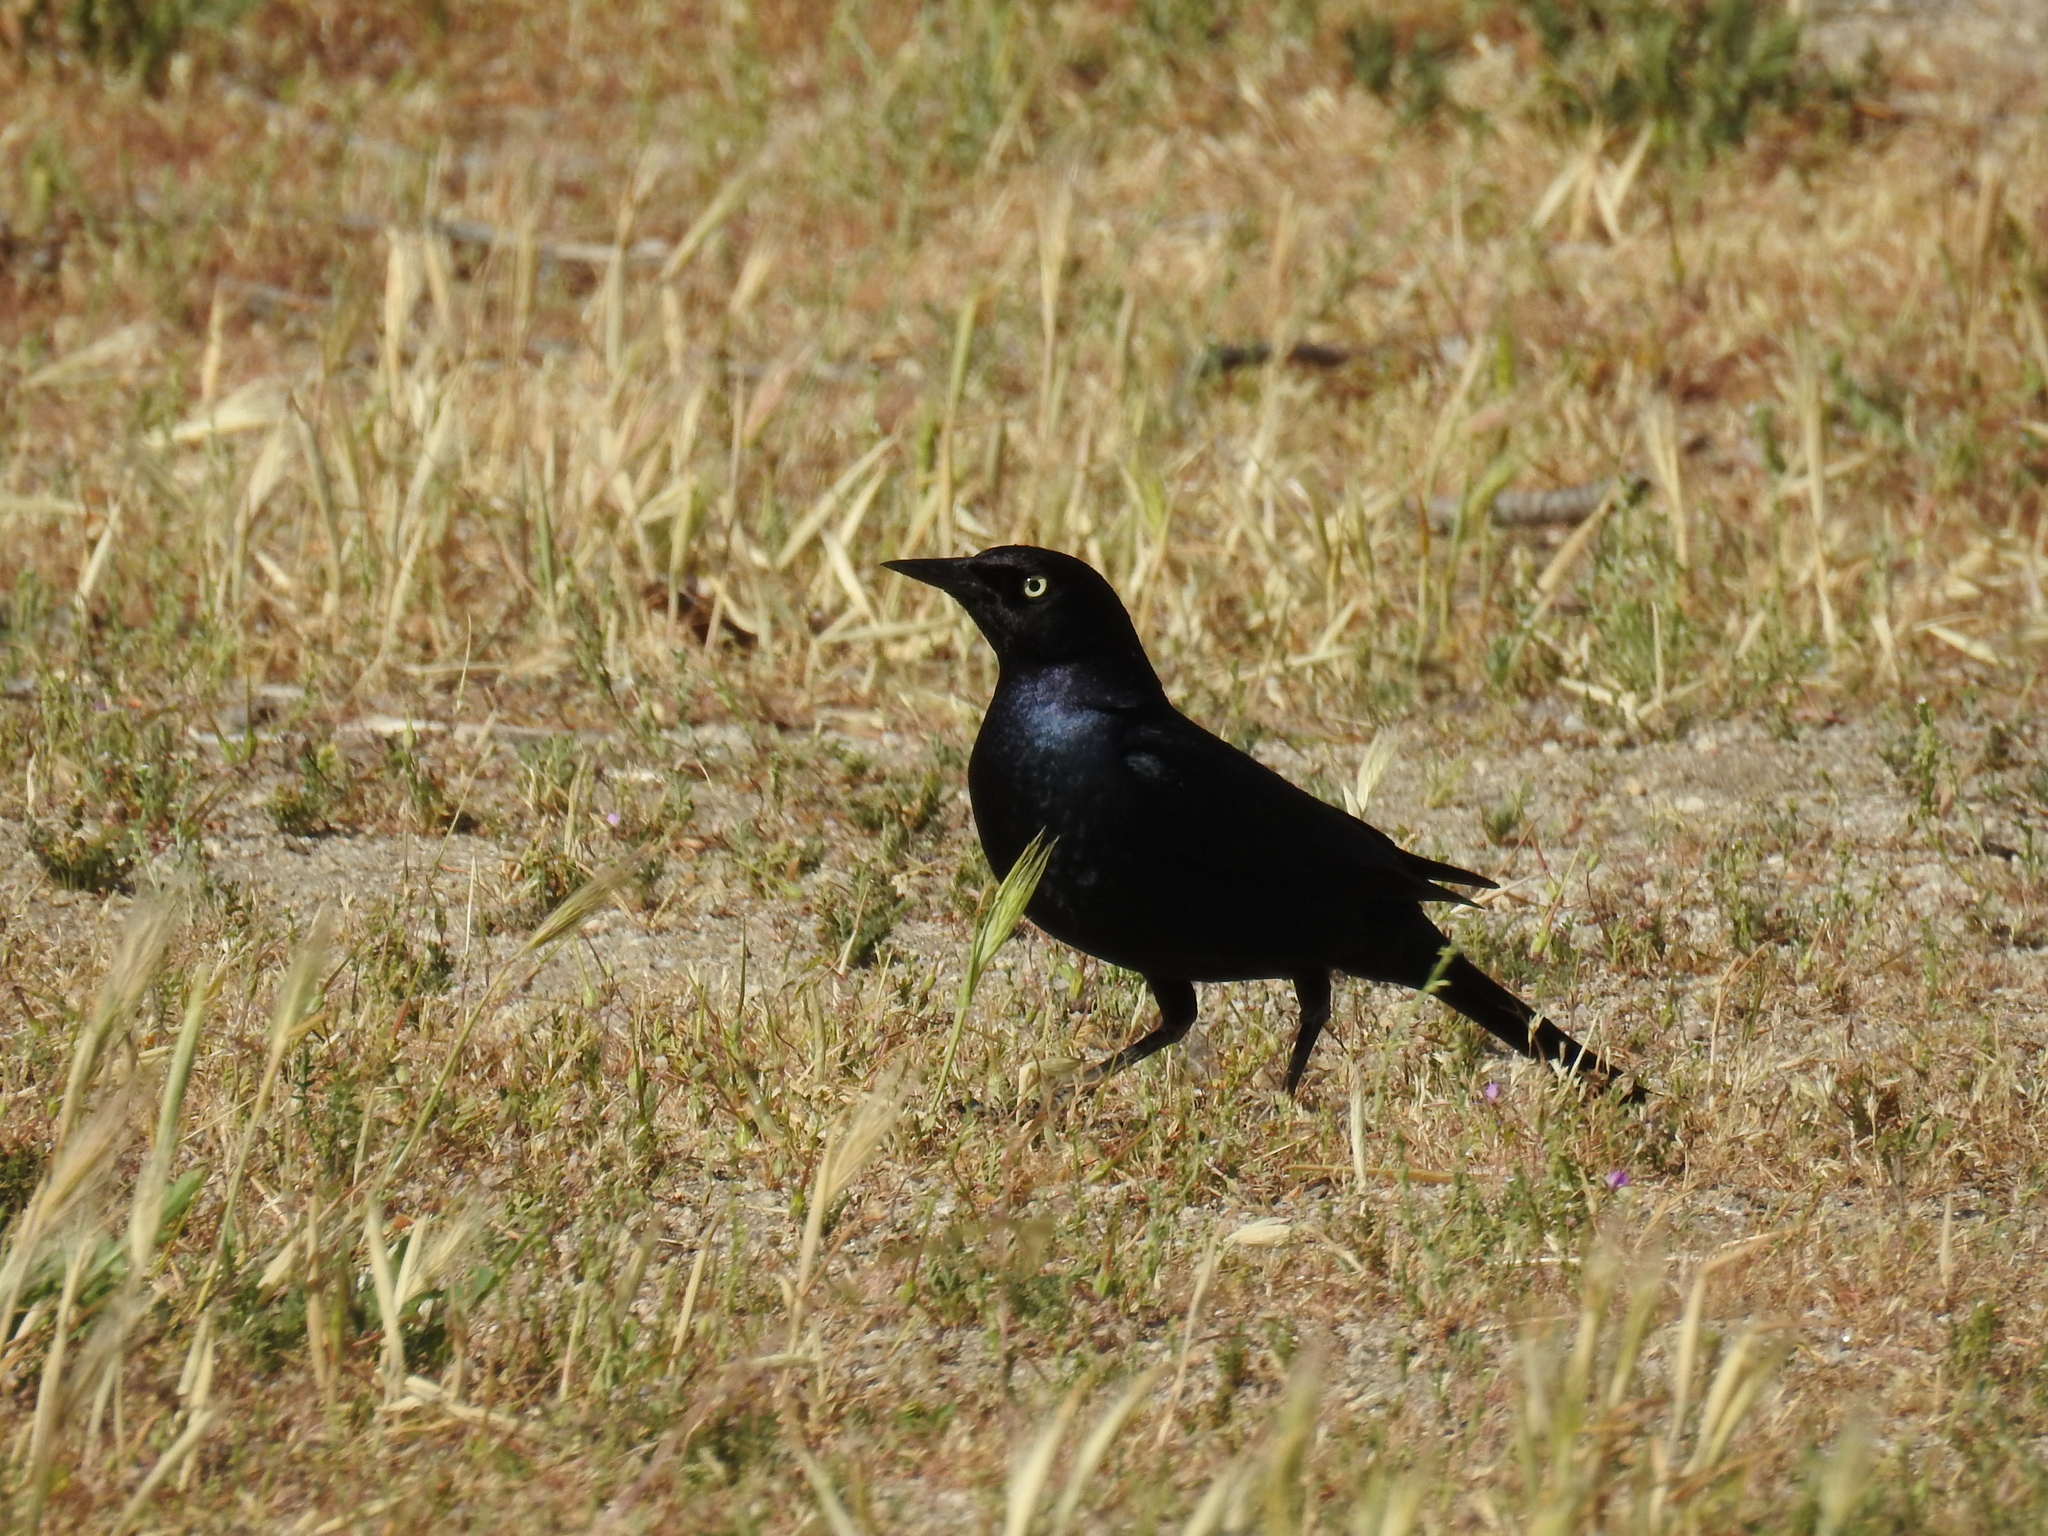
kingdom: Animalia
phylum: Chordata
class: Aves
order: Passeriformes
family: Icteridae
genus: Euphagus
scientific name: Euphagus cyanocephalus
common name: Brewer's blackbird
